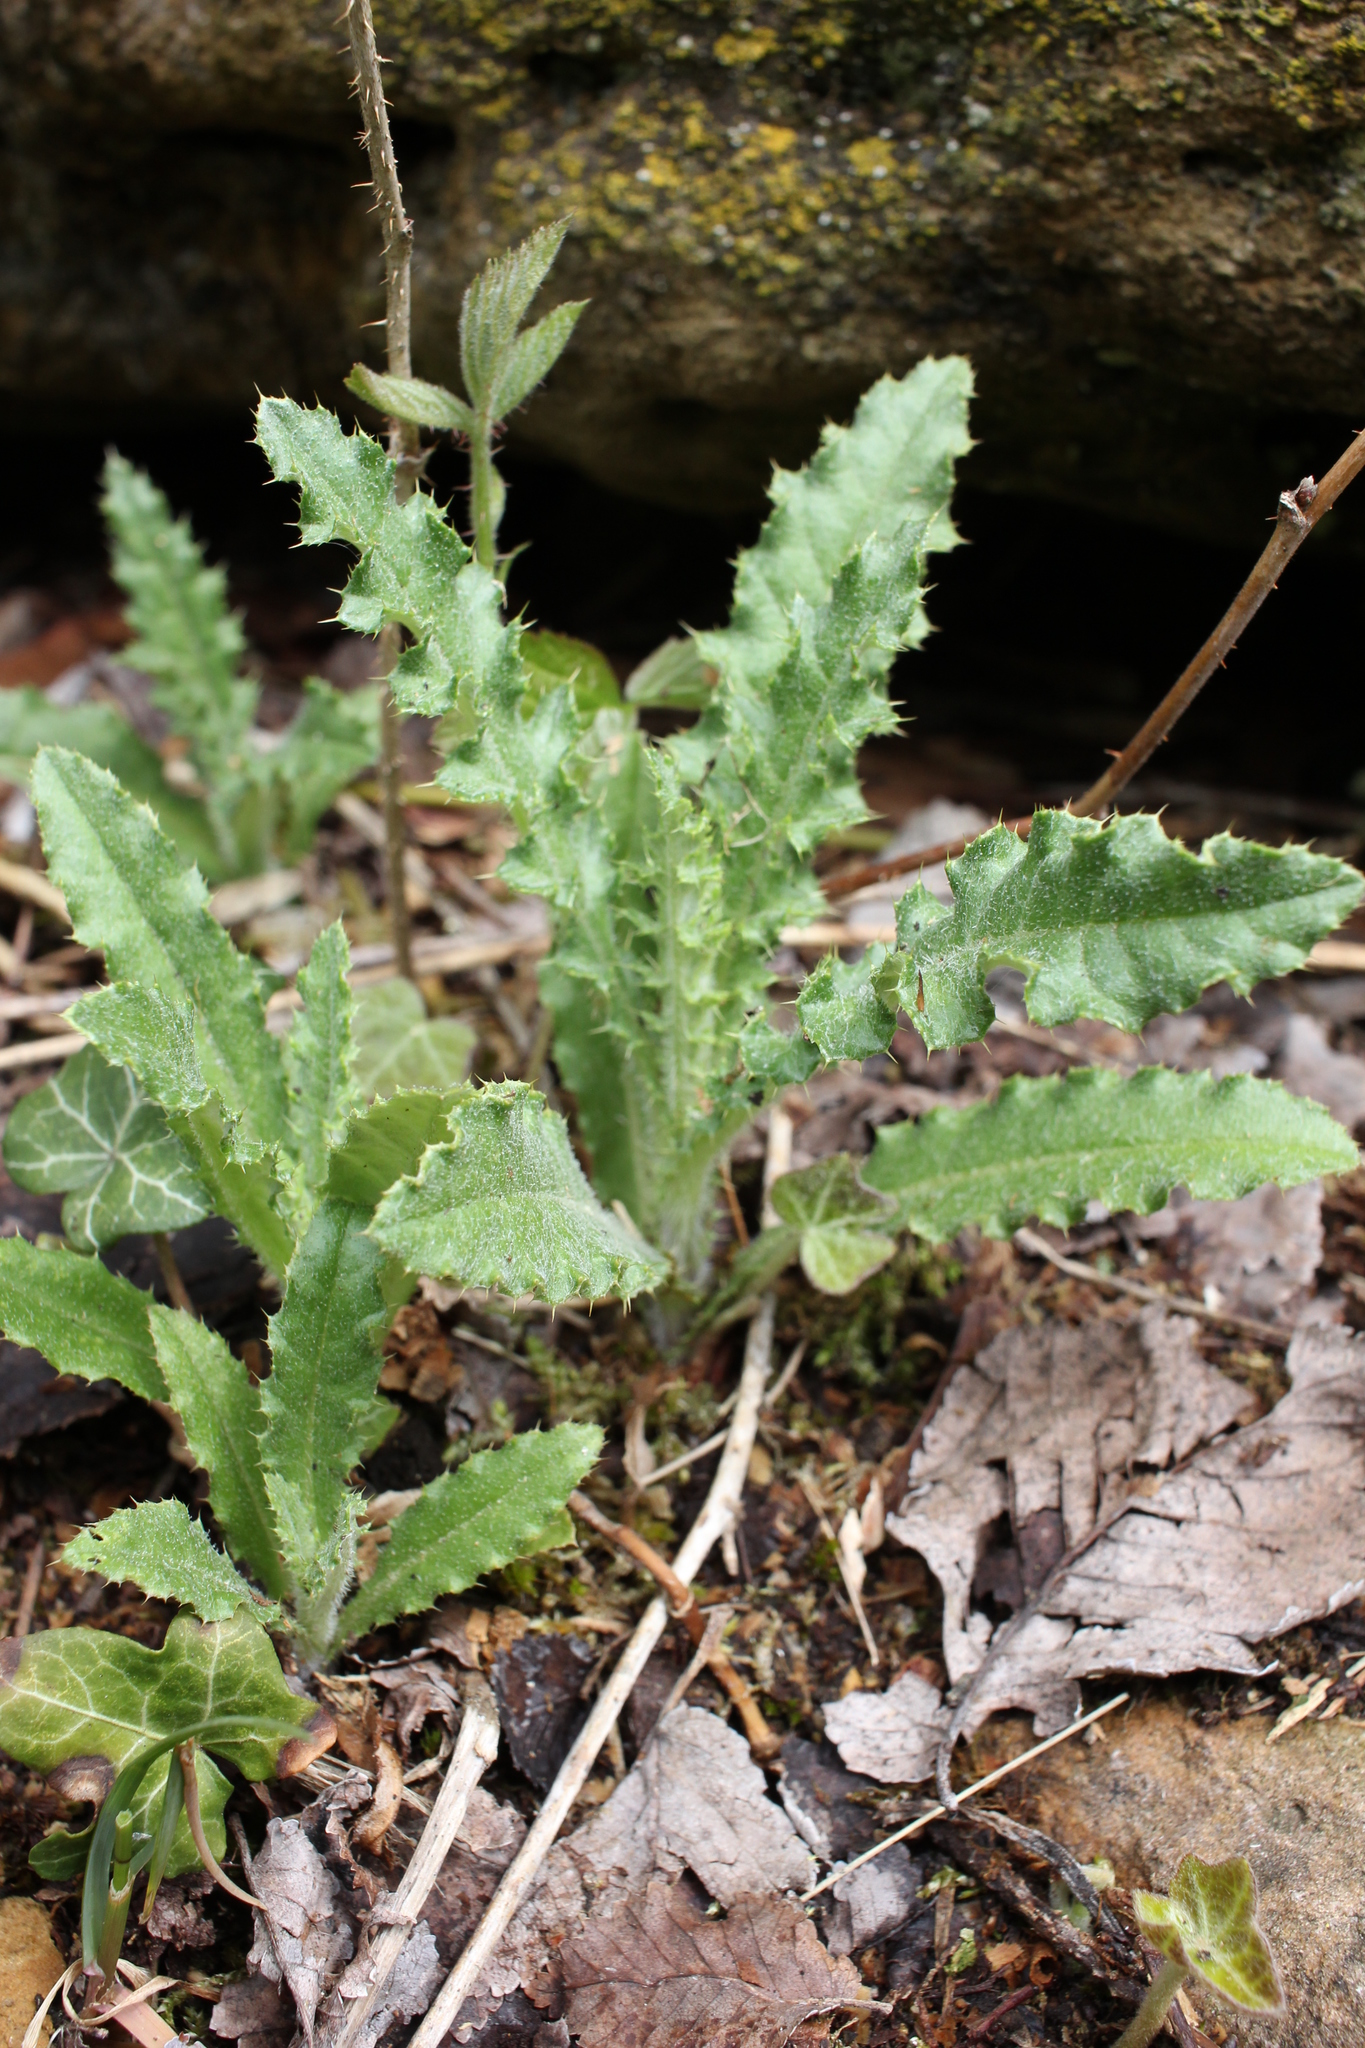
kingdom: Plantae
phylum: Tracheophyta
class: Magnoliopsida
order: Asterales
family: Asteraceae
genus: Cirsium
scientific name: Cirsium arvense
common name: Creeping thistle
